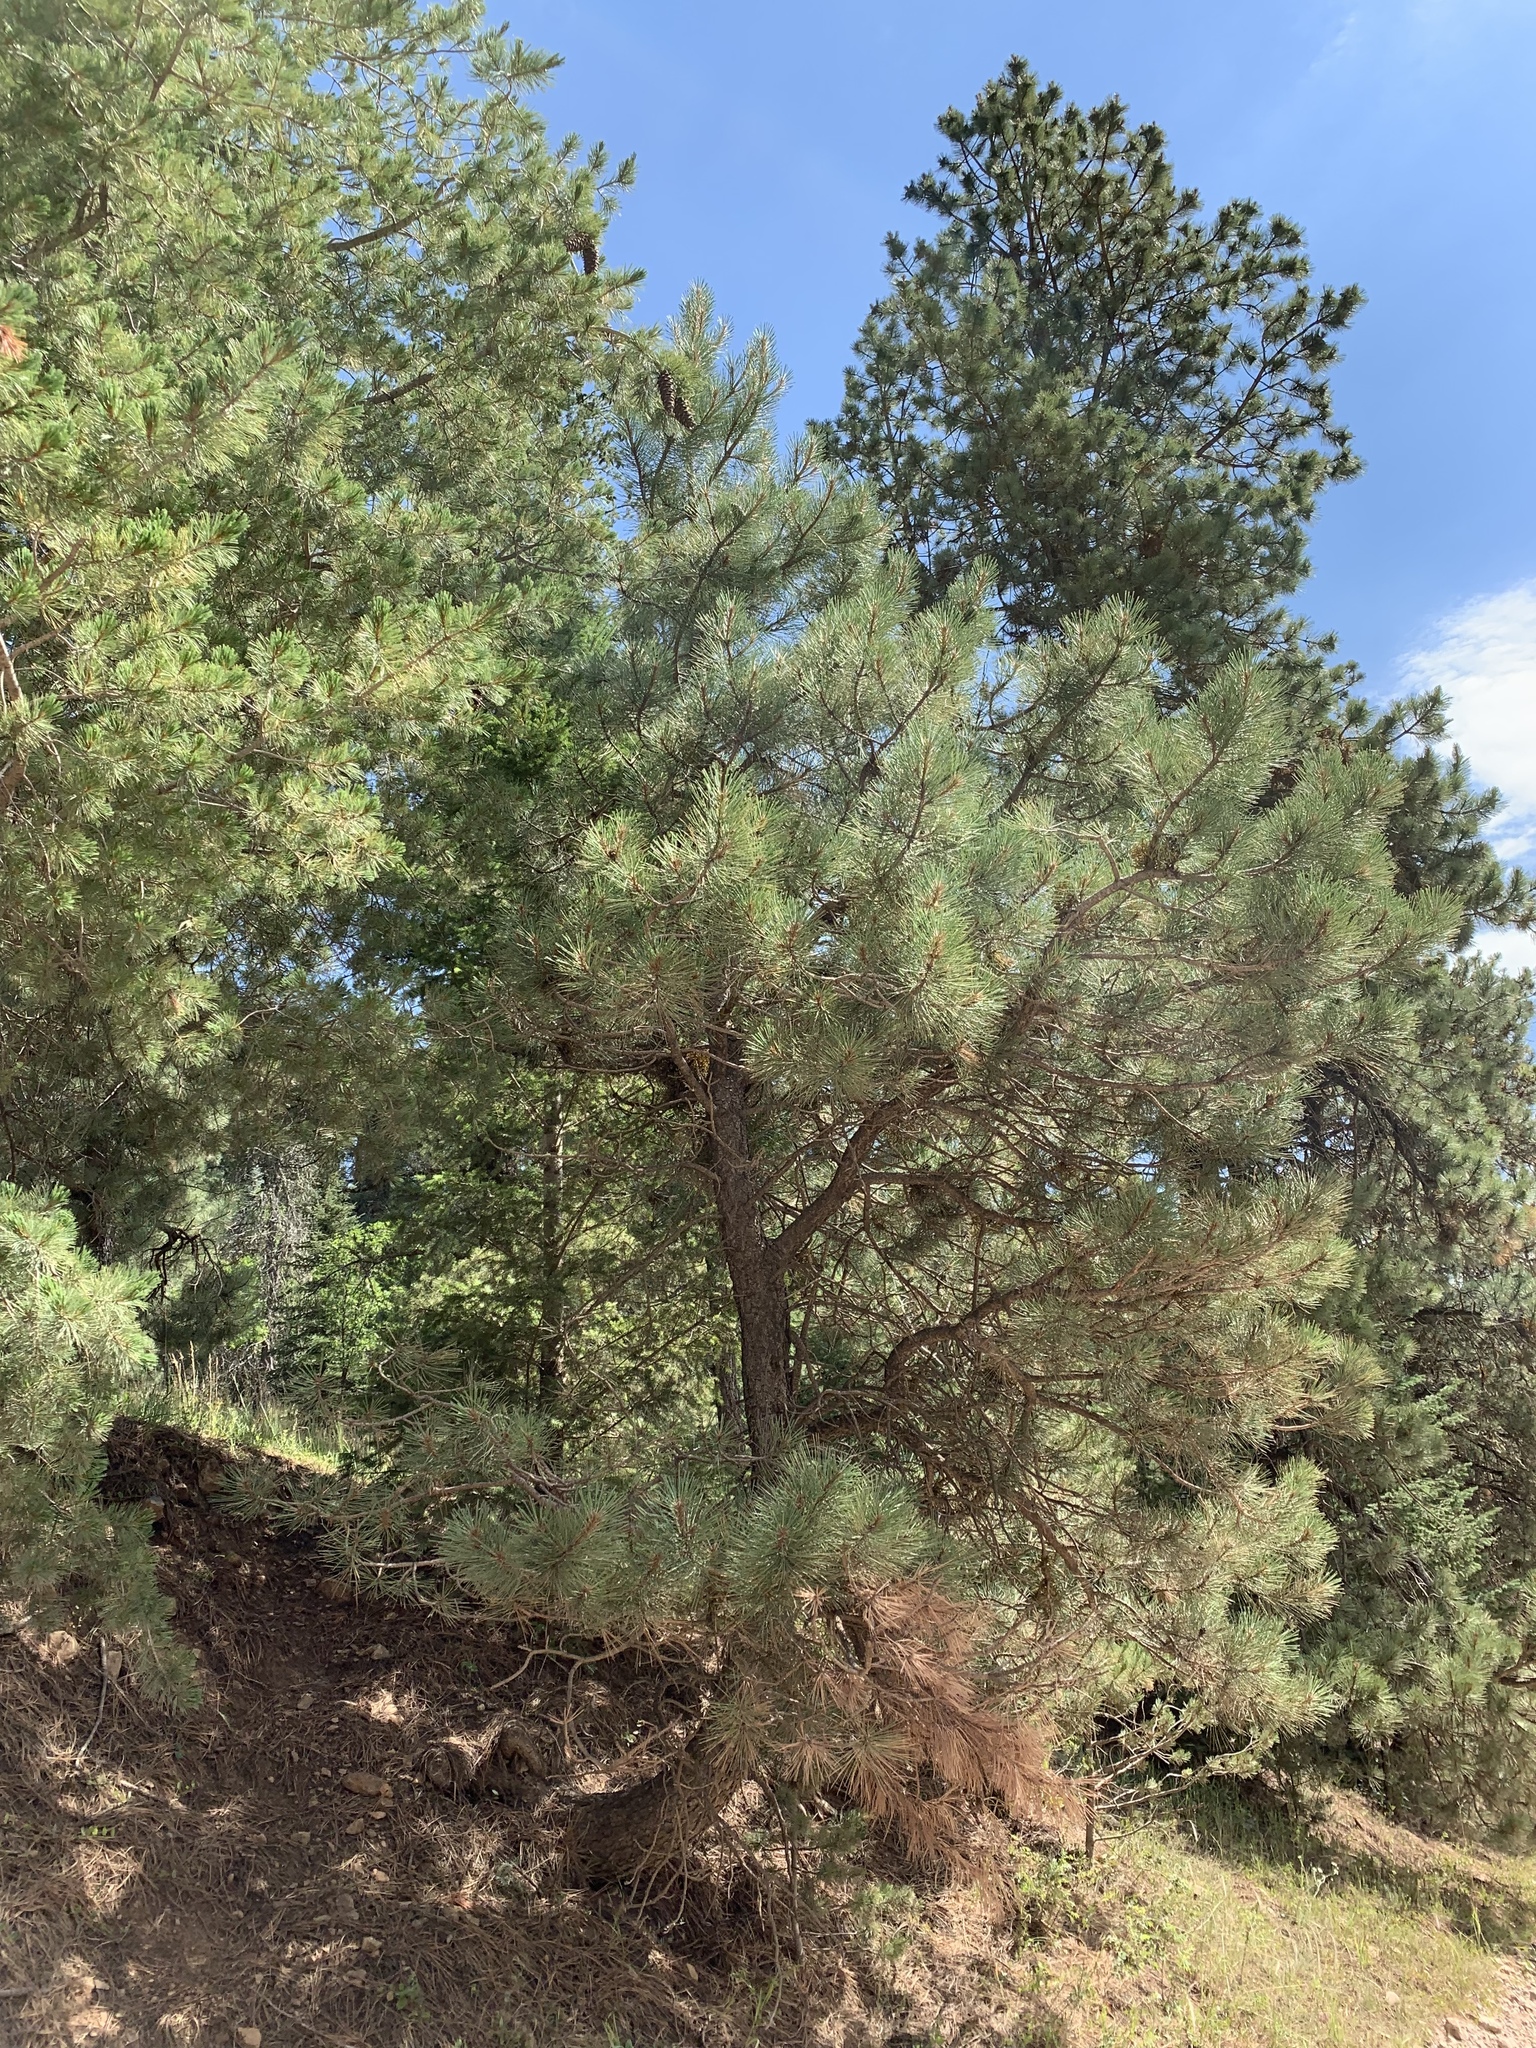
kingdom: Plantae
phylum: Tracheophyta
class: Pinopsida
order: Pinales
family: Pinaceae
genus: Pinus
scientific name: Pinus ponderosa
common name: Western yellow-pine
